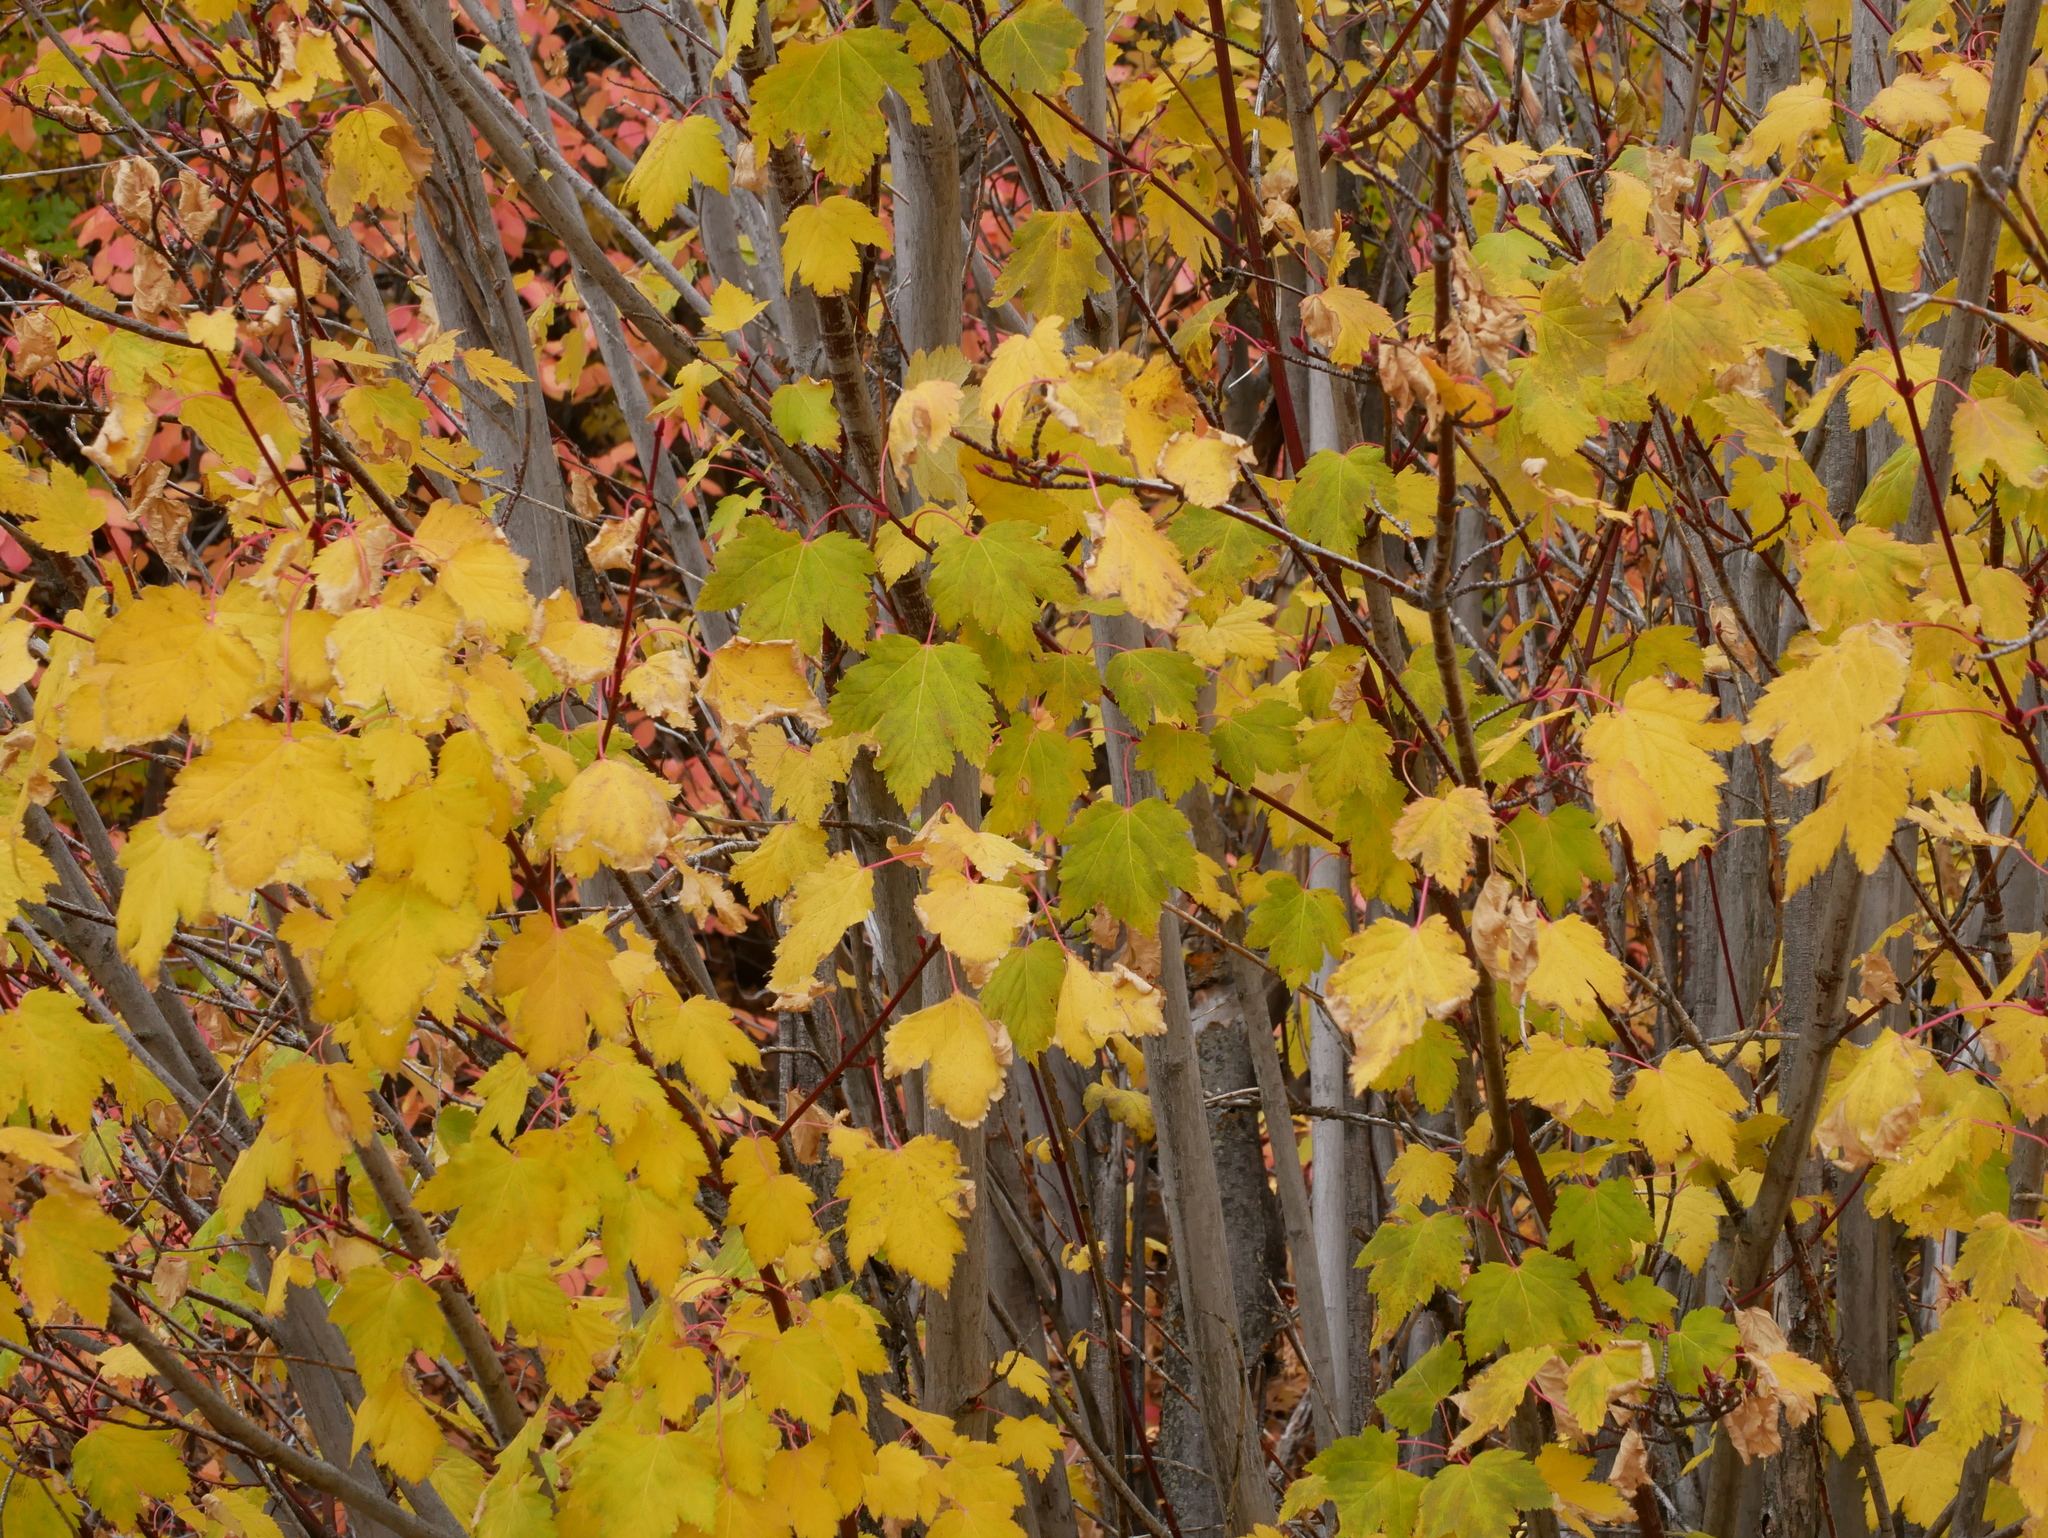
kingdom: Plantae
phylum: Tracheophyta
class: Magnoliopsida
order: Sapindales
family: Sapindaceae
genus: Acer
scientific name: Acer glabrum
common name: Rocky mountain maple
